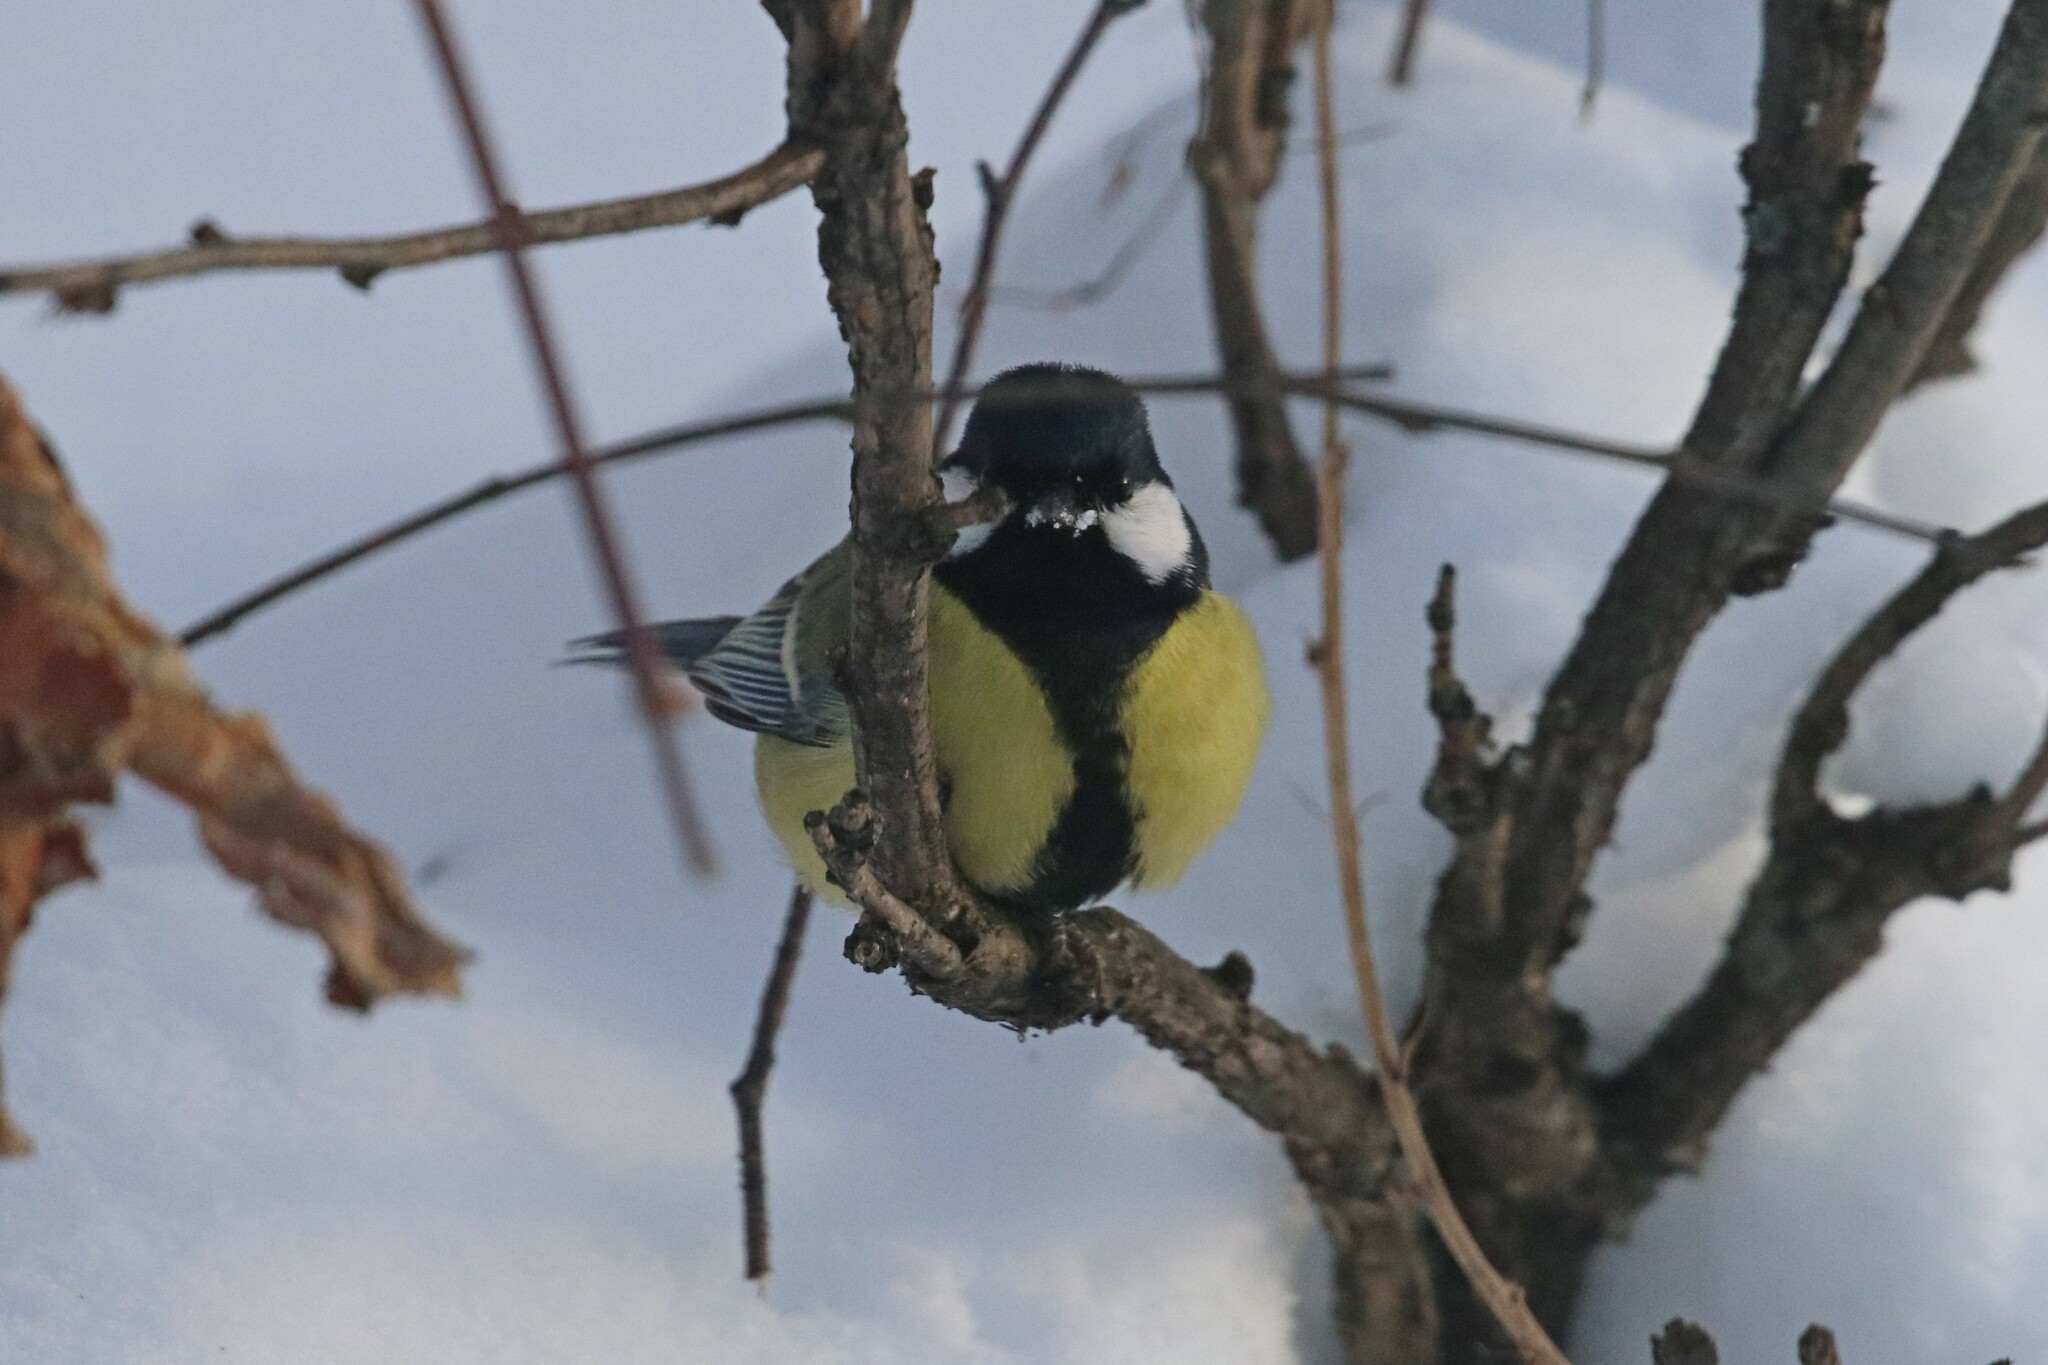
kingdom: Animalia
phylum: Chordata
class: Aves
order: Passeriformes
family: Paridae
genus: Parus
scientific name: Parus major
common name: Great tit
